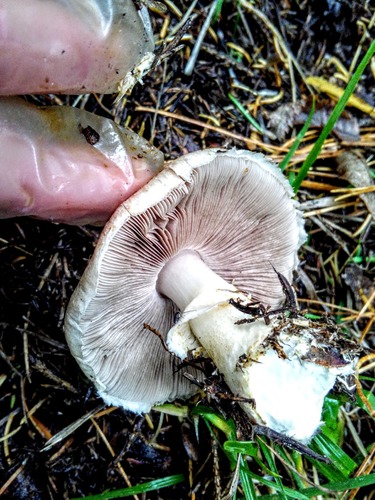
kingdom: Fungi
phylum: Basidiomycota
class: Agaricomycetes
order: Agaricales
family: Agaricaceae
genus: Agaricus
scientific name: Agaricus
